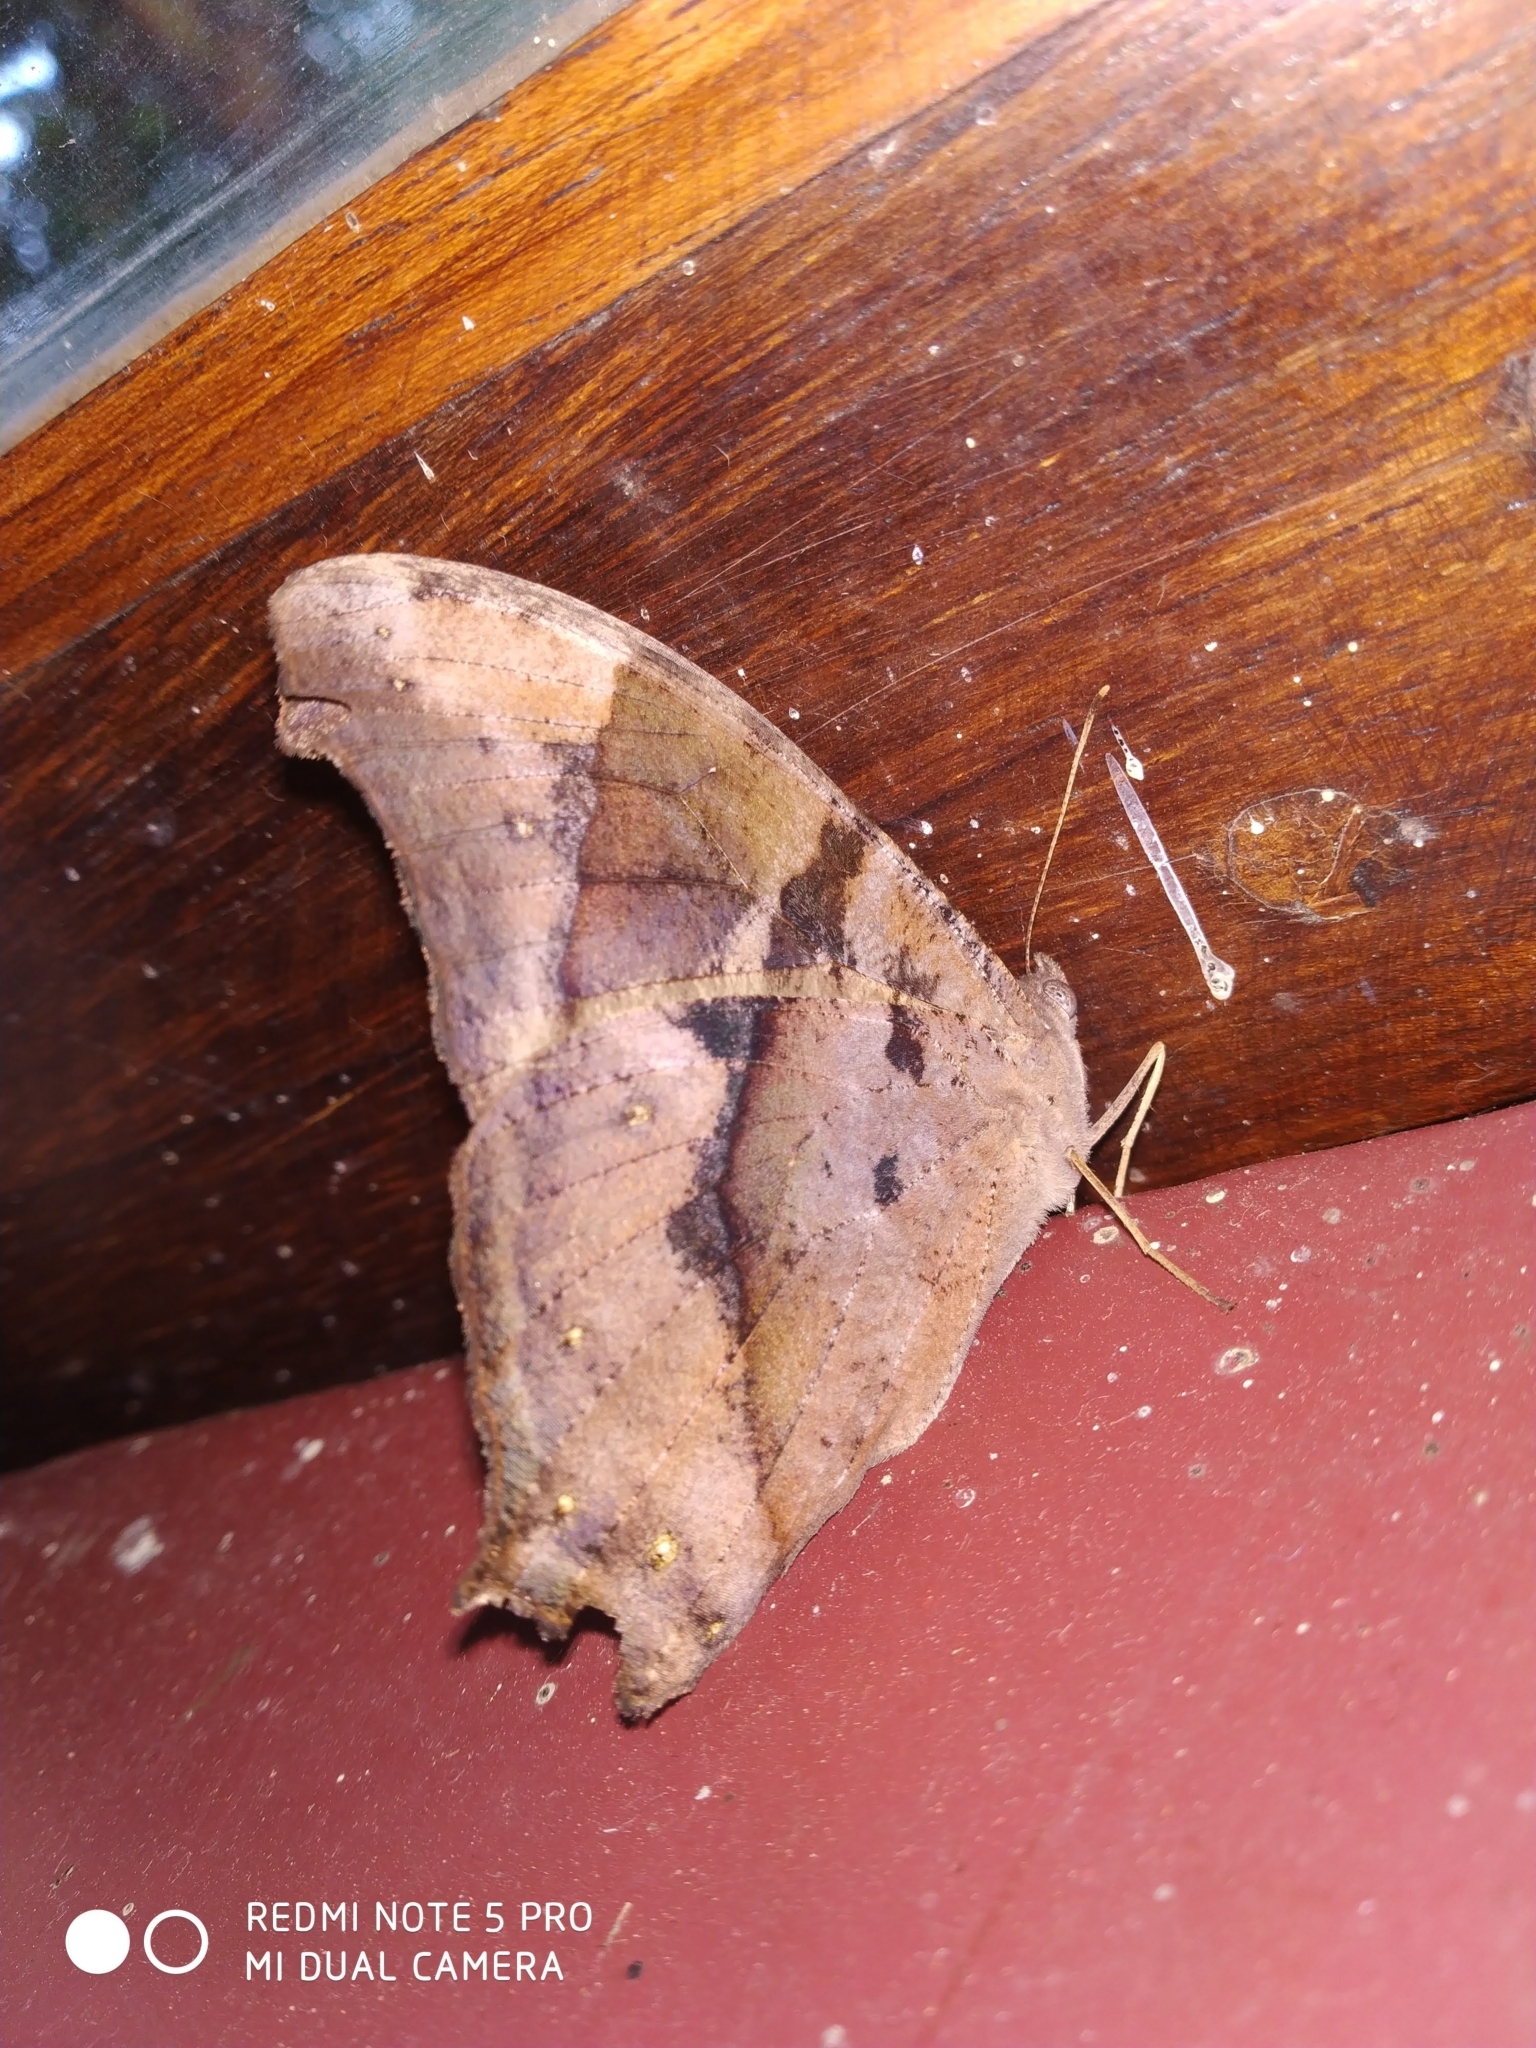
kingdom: Animalia
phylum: Arthropoda
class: Insecta
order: Lepidoptera
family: Nymphalidae
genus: Melanitis
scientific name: Melanitis phedima
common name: Dark evening brown
